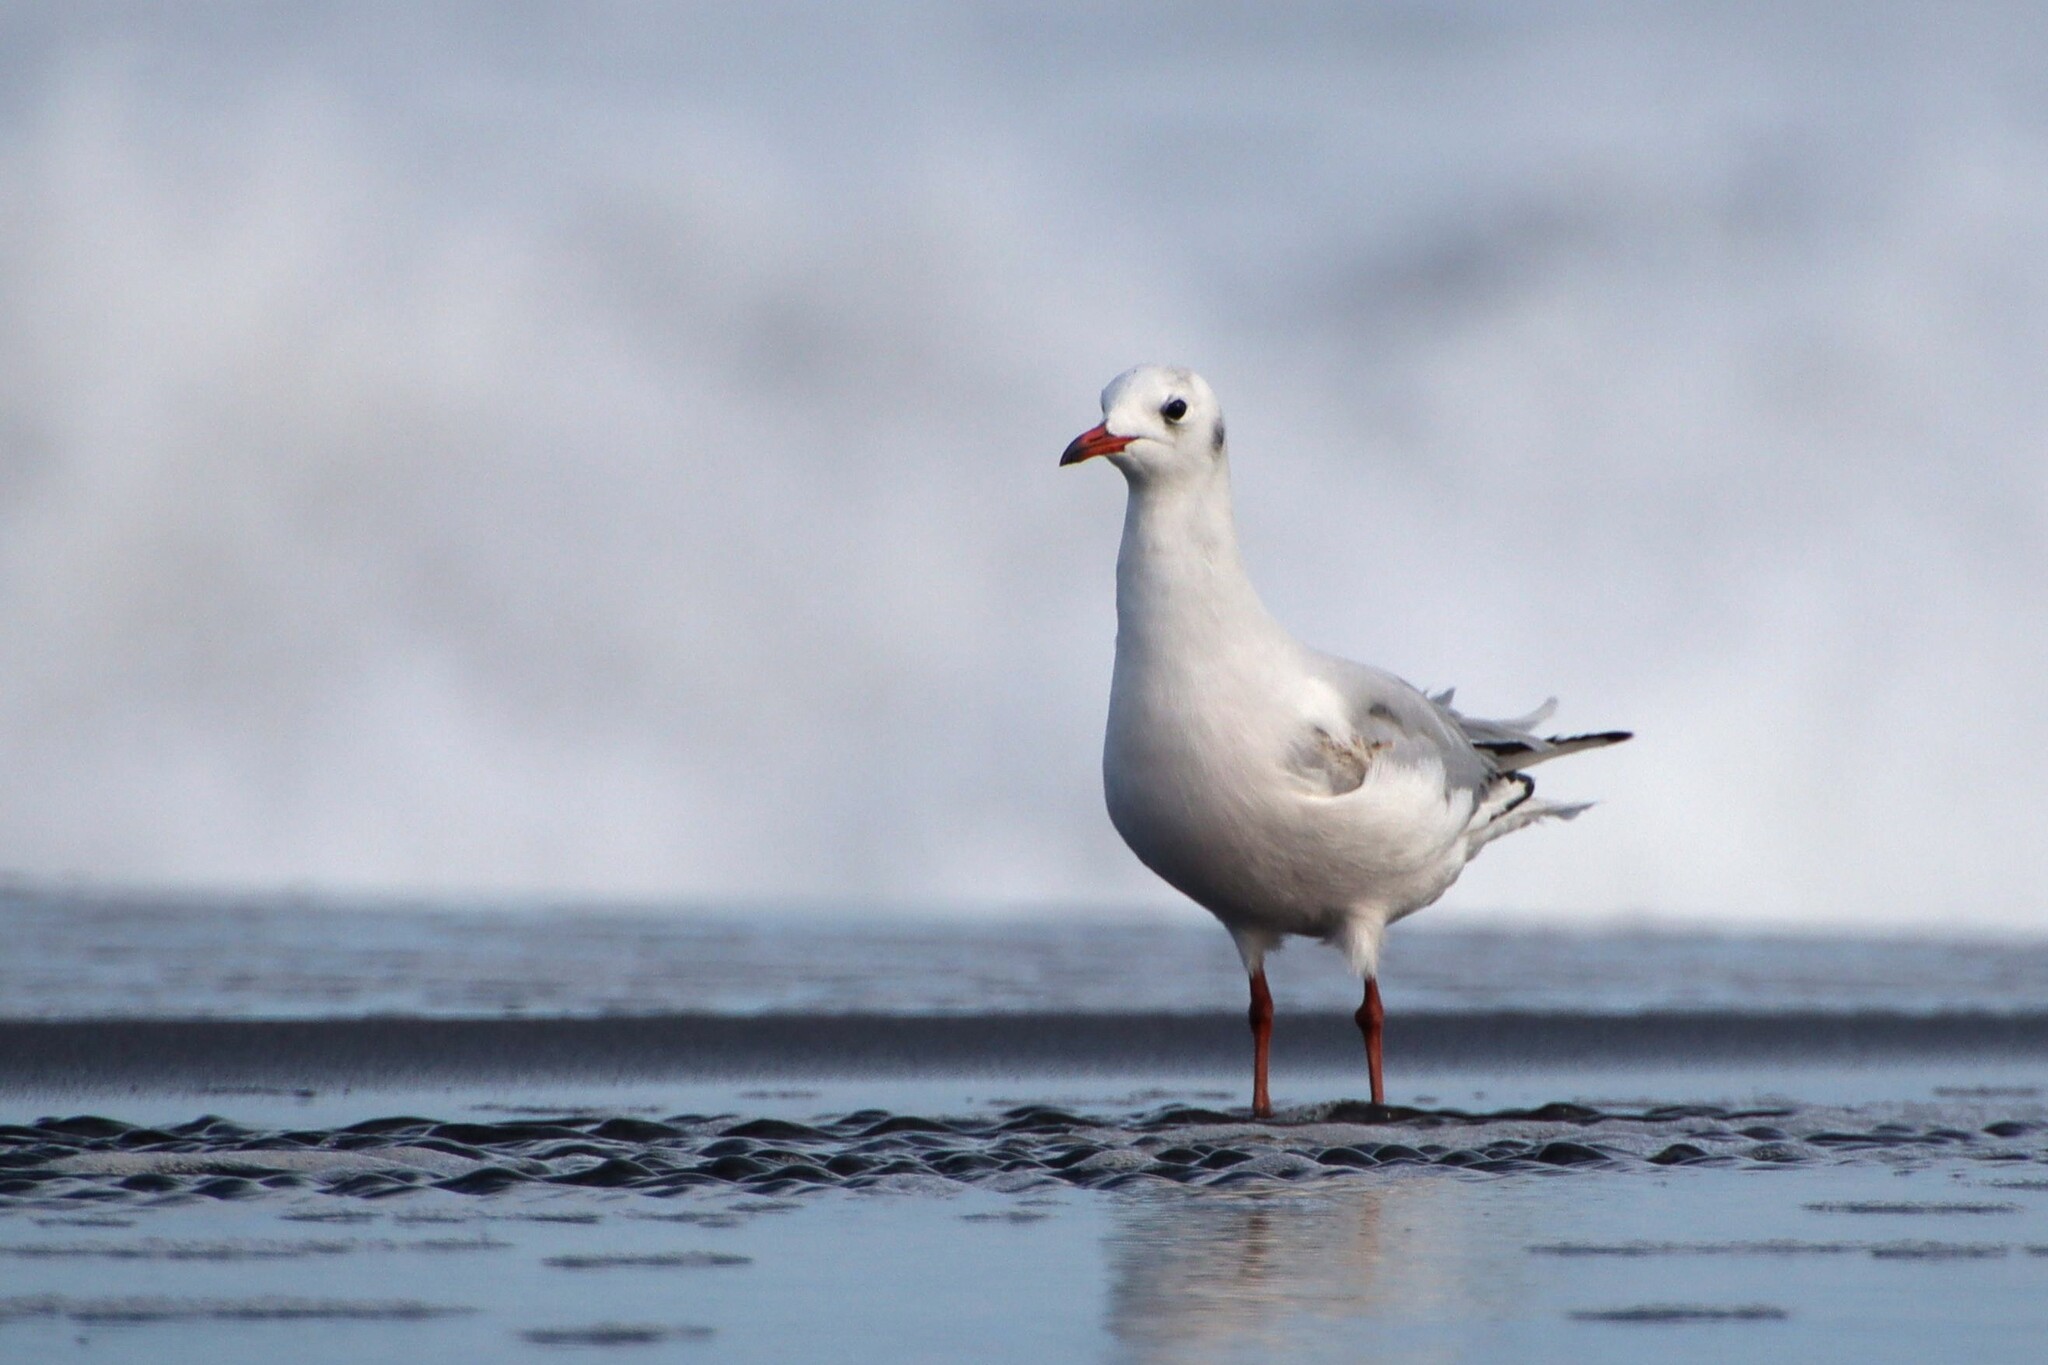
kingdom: Animalia
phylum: Chordata
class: Aves
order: Charadriiformes
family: Laridae
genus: Chroicocephalus
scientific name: Chroicocephalus maculipennis
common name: Brown-hooded gull
